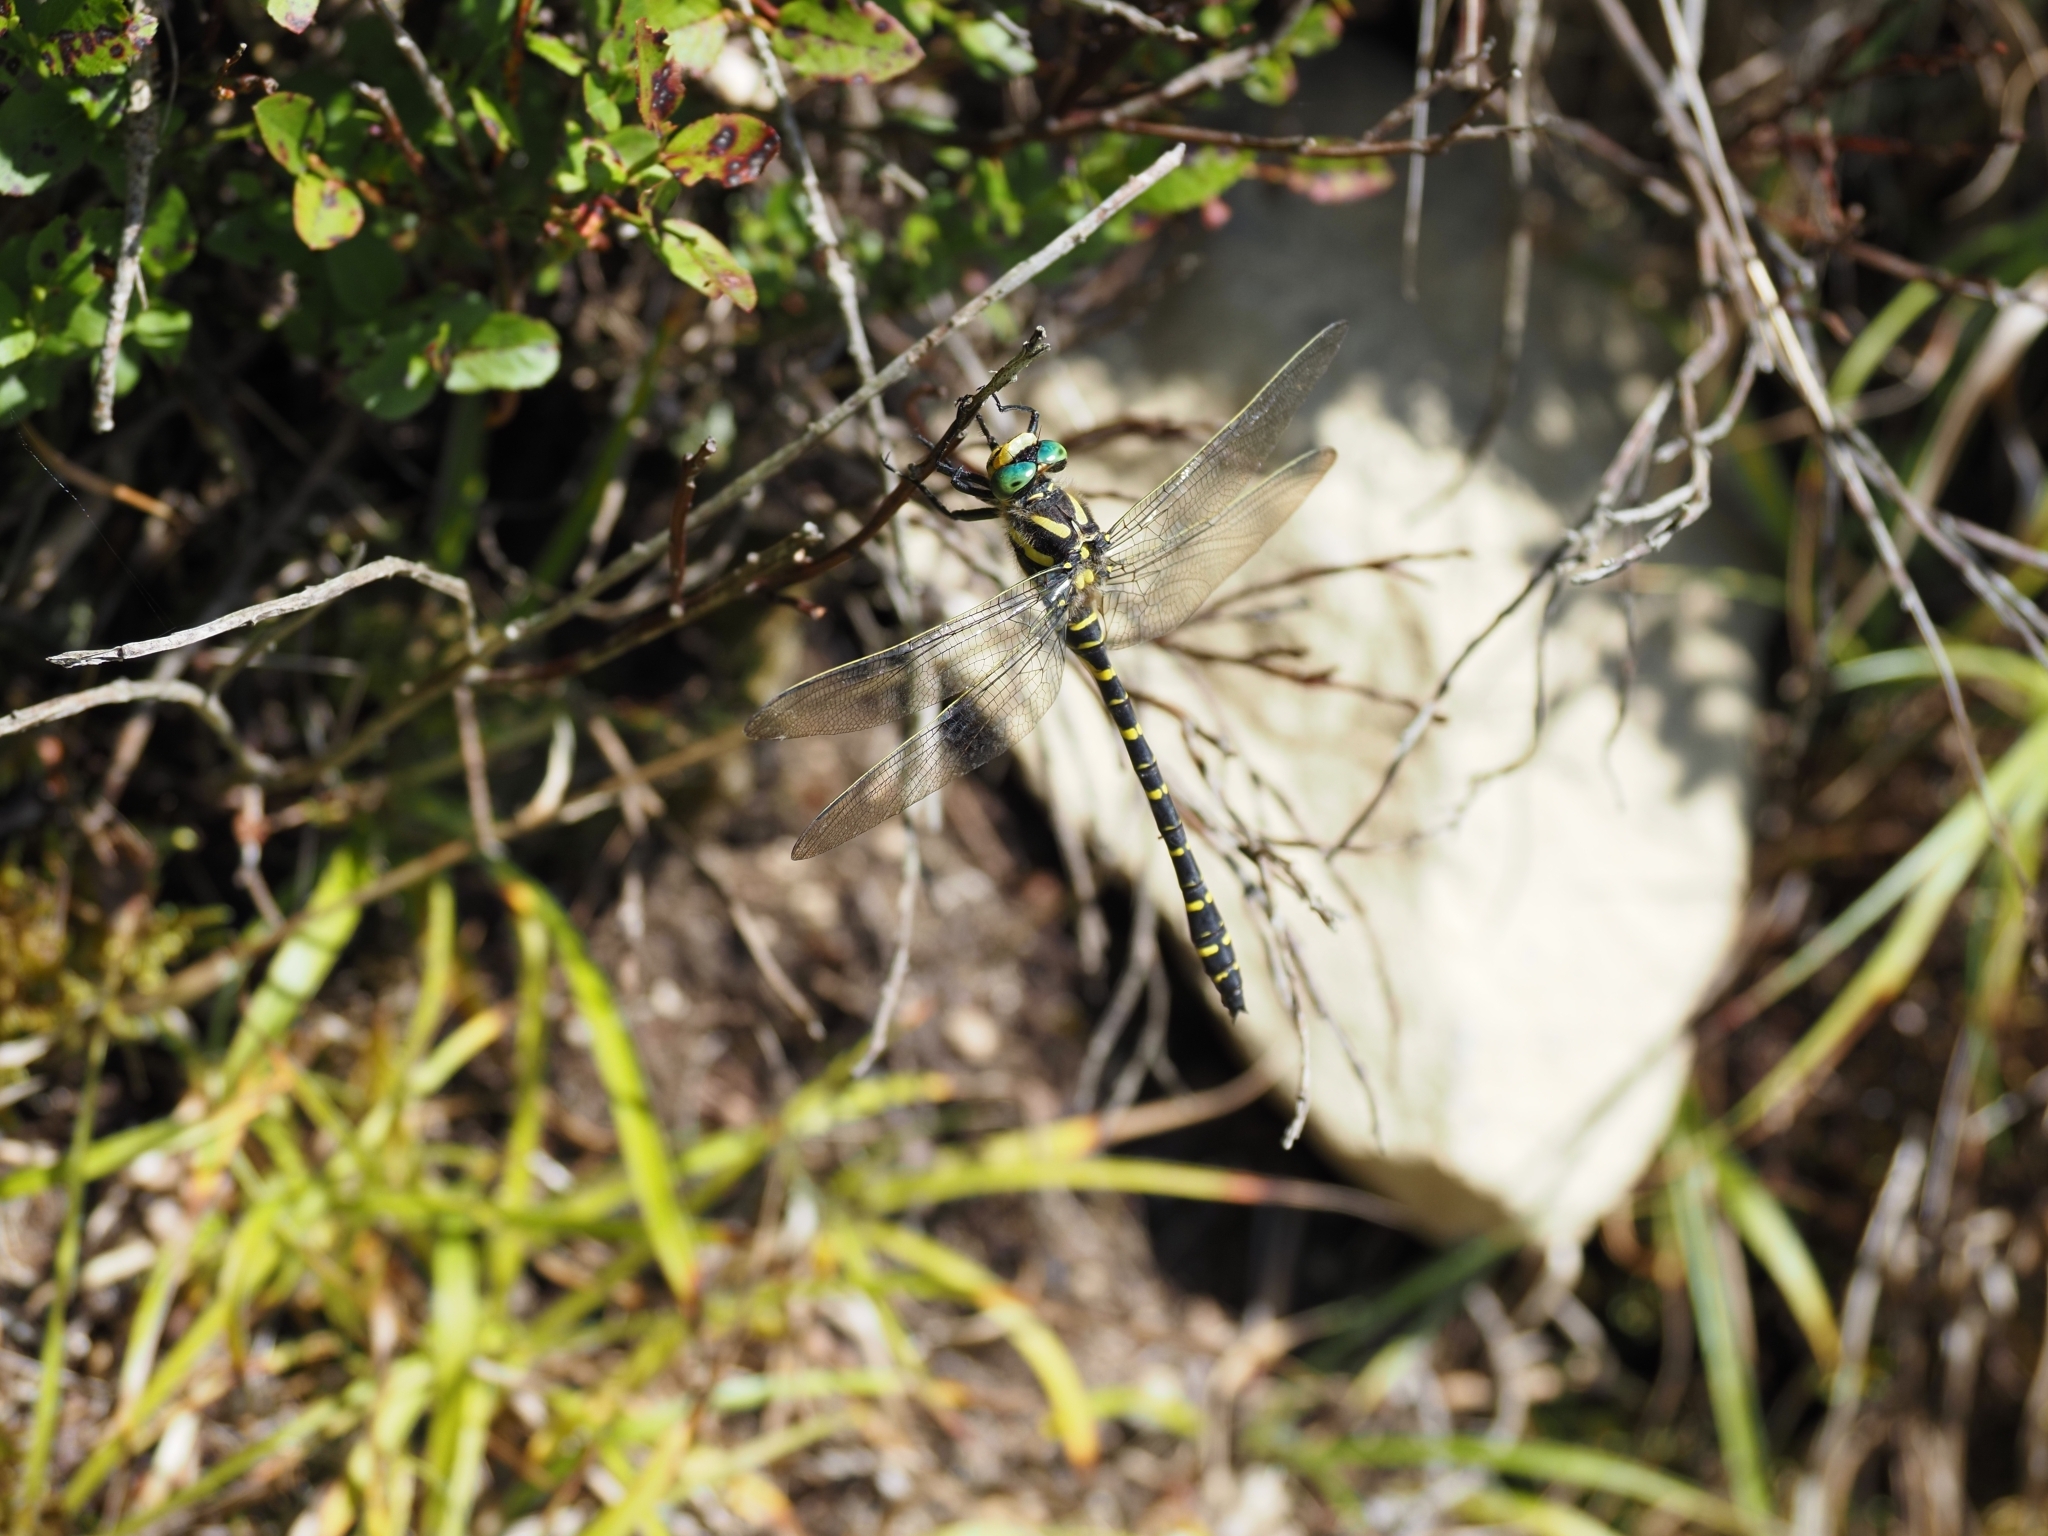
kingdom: Animalia
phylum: Arthropoda
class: Insecta
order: Odonata
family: Cordulegastridae
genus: Cordulegaster
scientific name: Cordulegaster boltonii
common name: Golden-ringed dragonfly
